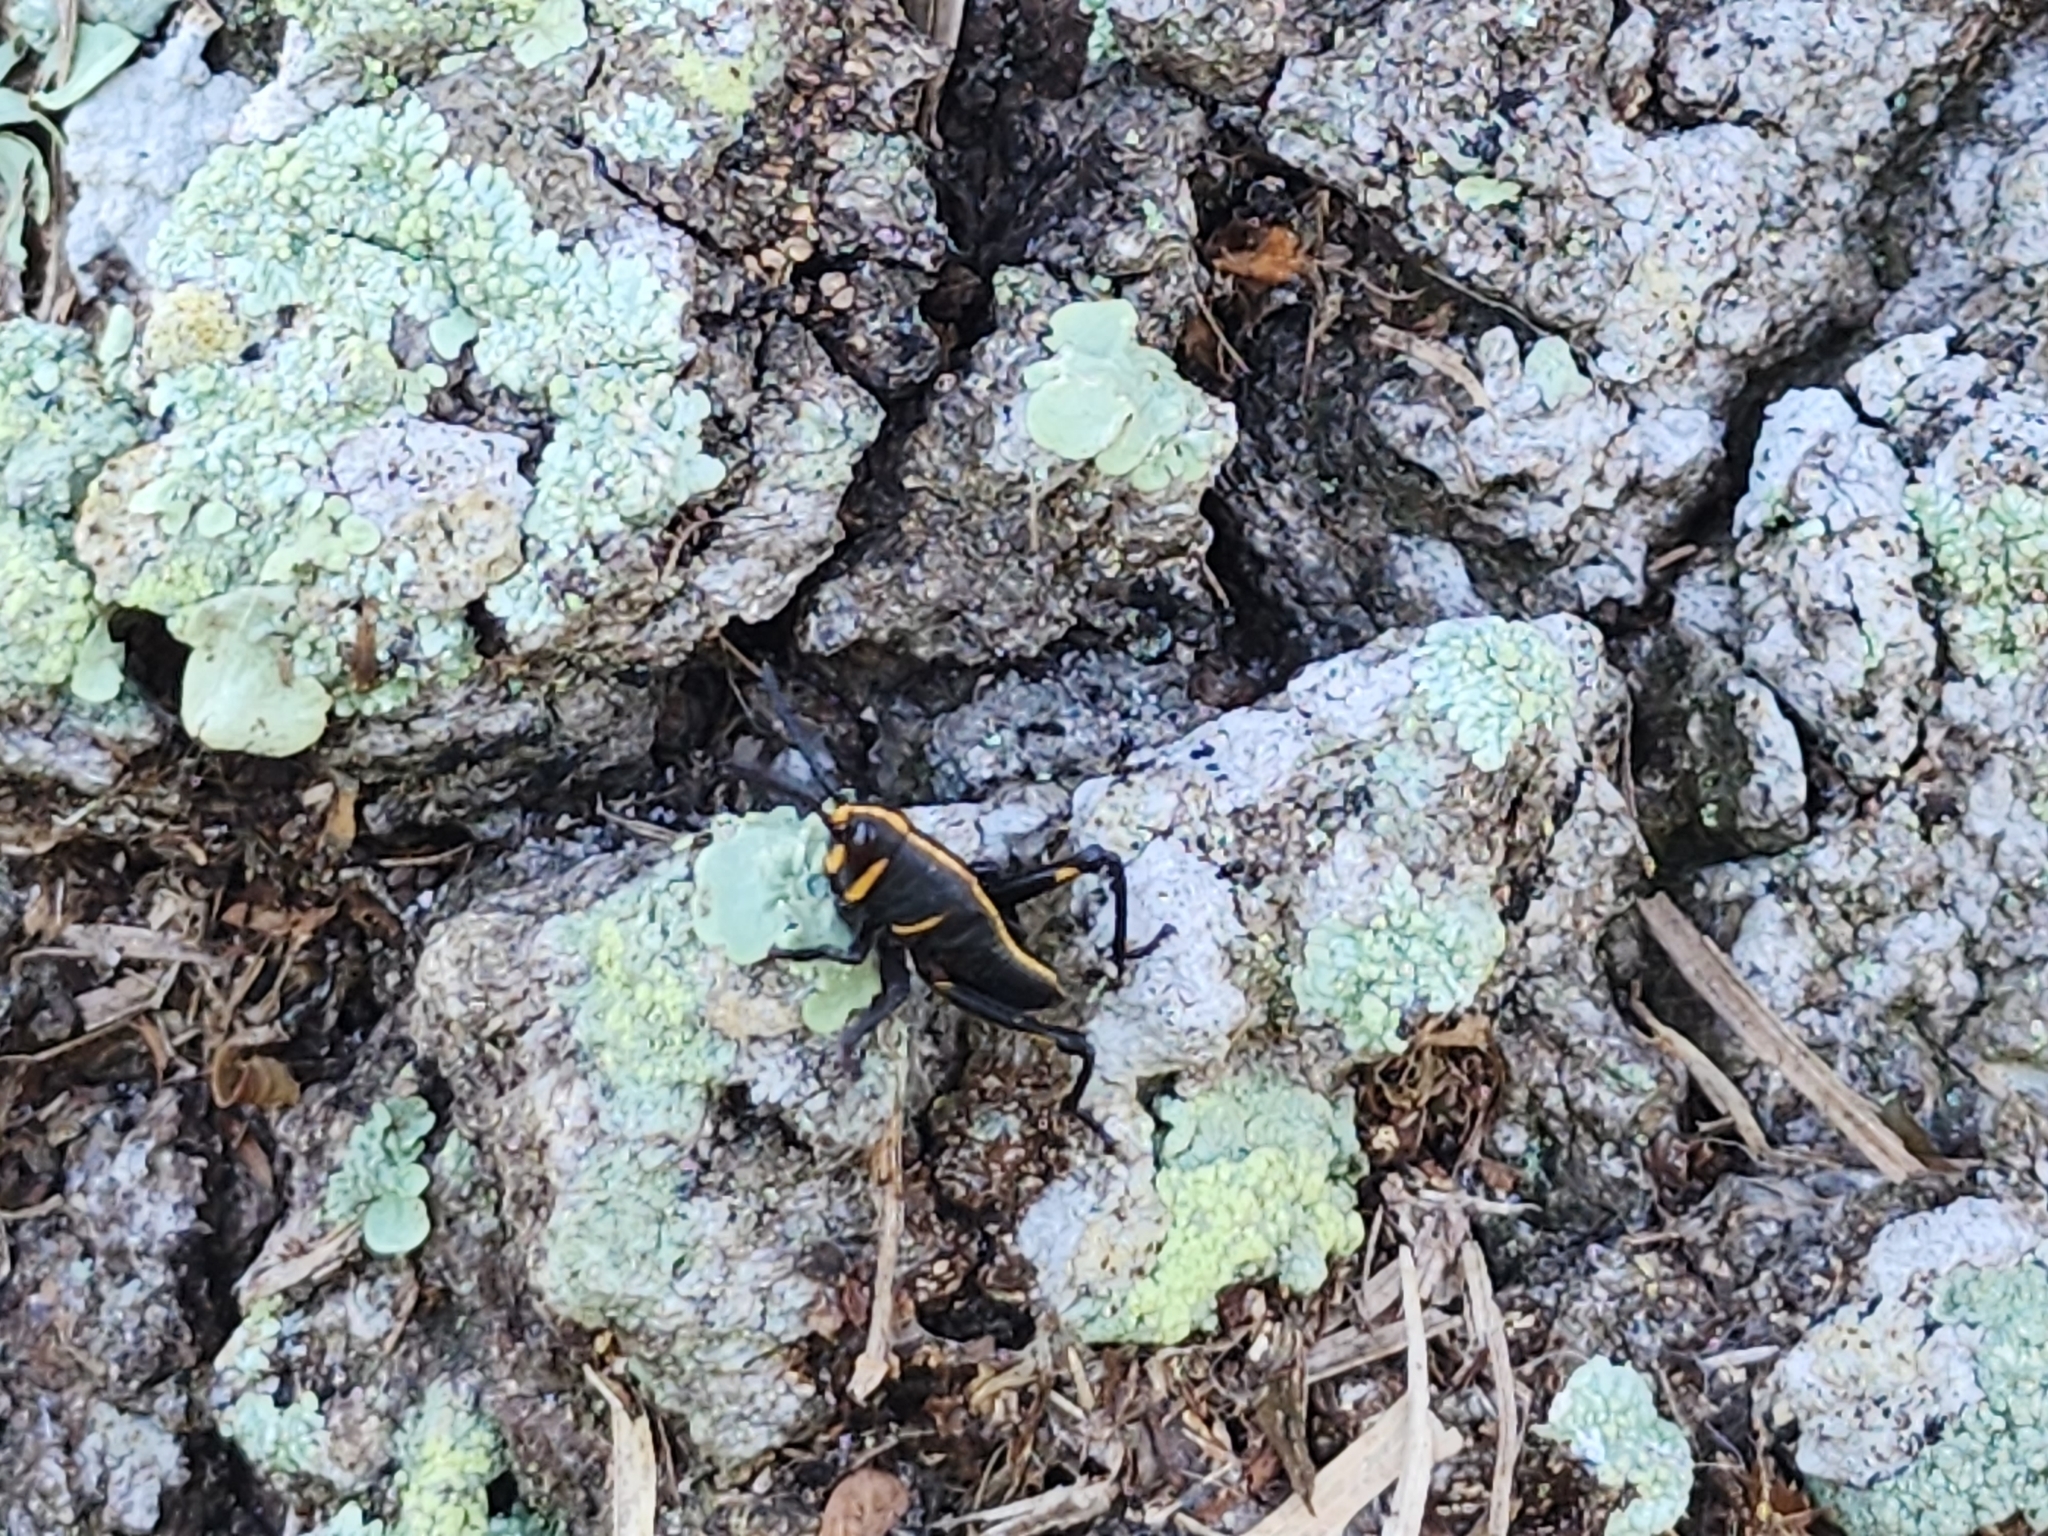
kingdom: Animalia
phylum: Arthropoda
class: Insecta
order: Orthoptera
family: Romaleidae
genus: Romalea
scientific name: Romalea microptera
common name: Eastern lubber grasshopper
